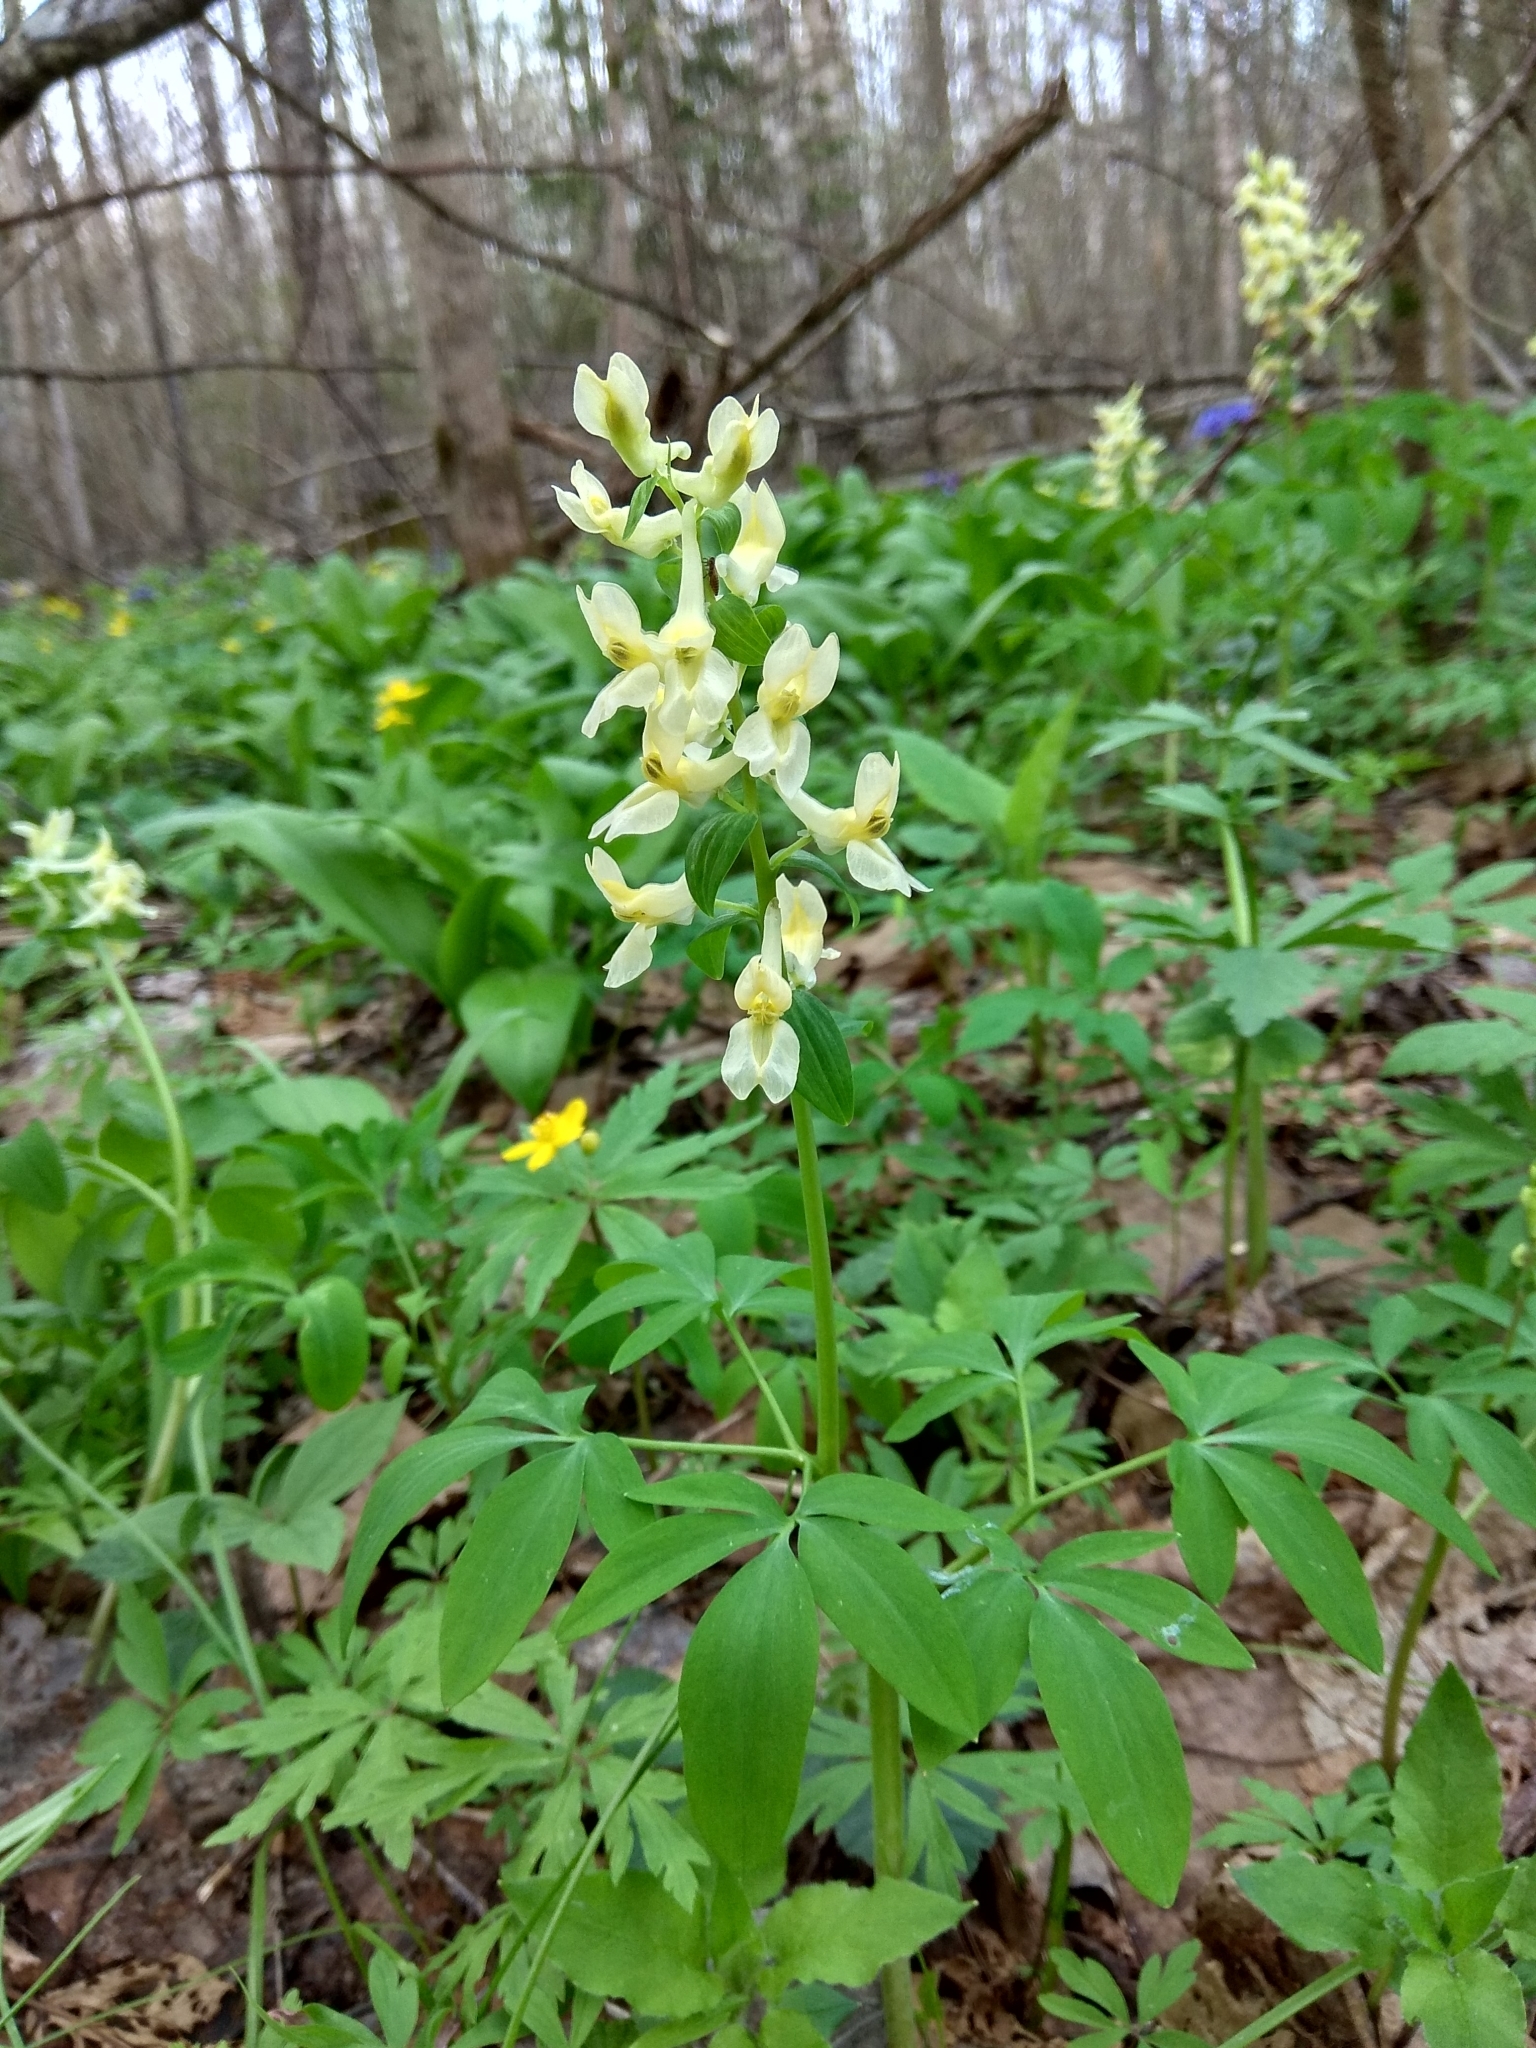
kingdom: Plantae
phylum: Tracheophyta
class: Magnoliopsida
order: Ranunculales
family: Papaveraceae
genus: Corydalis
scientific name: Corydalis cava
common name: Hollowroot
